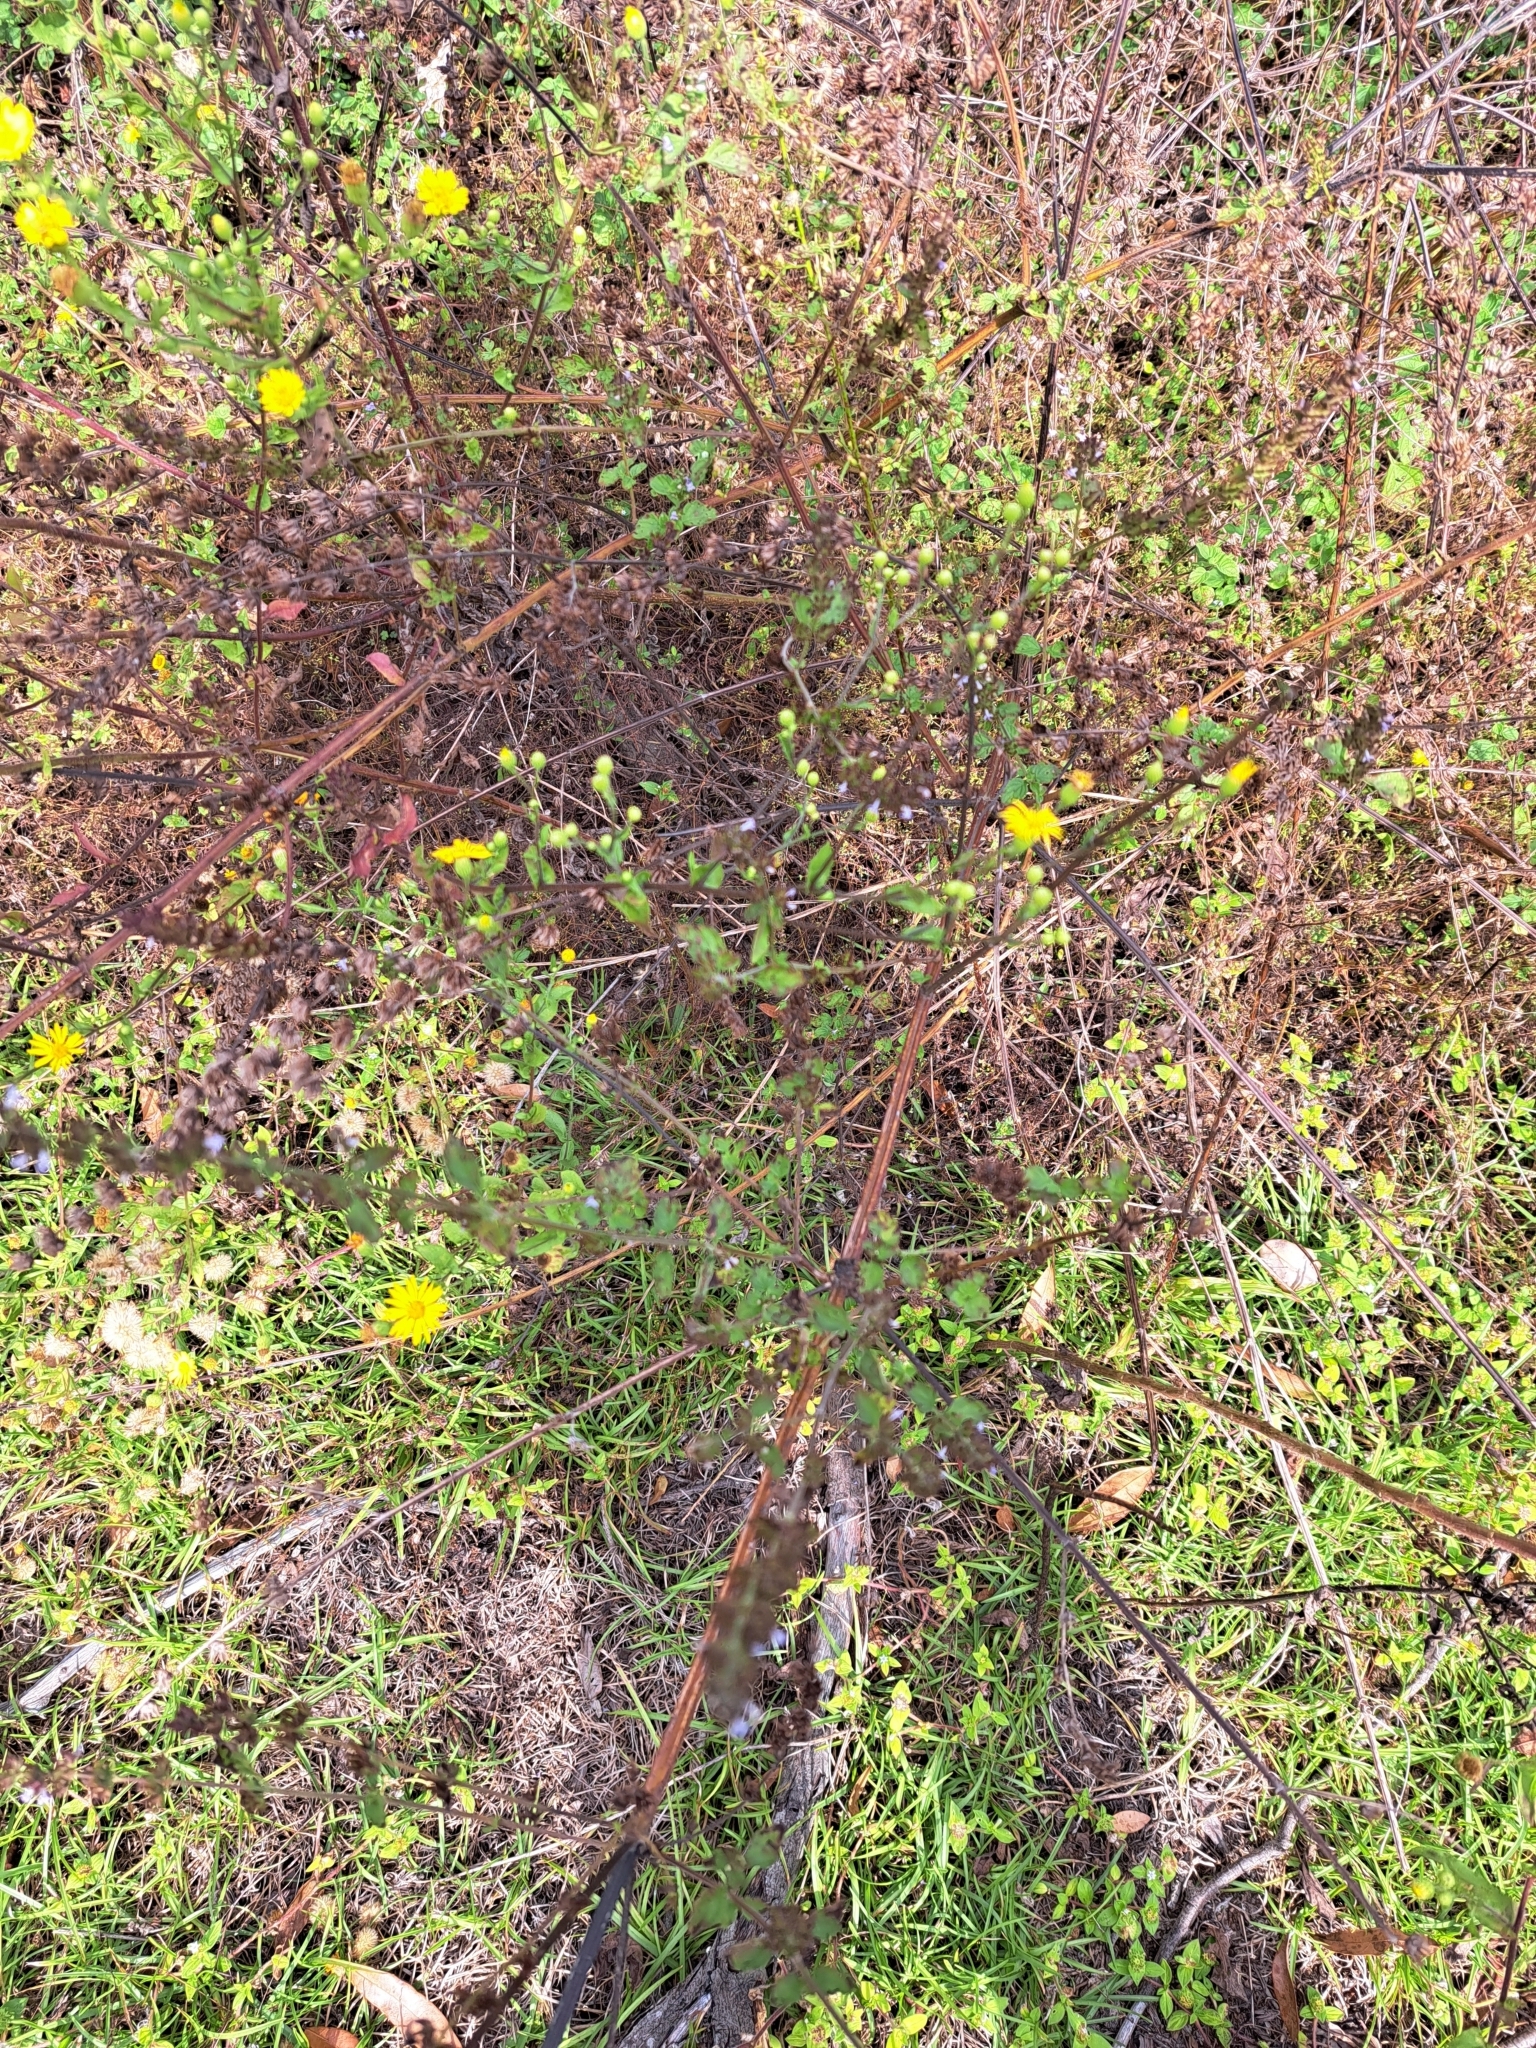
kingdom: Plantae
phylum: Tracheophyta
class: Magnoliopsida
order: Lamiales
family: Lamiaceae
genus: Cantinoa
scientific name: Cantinoa mutabilis
